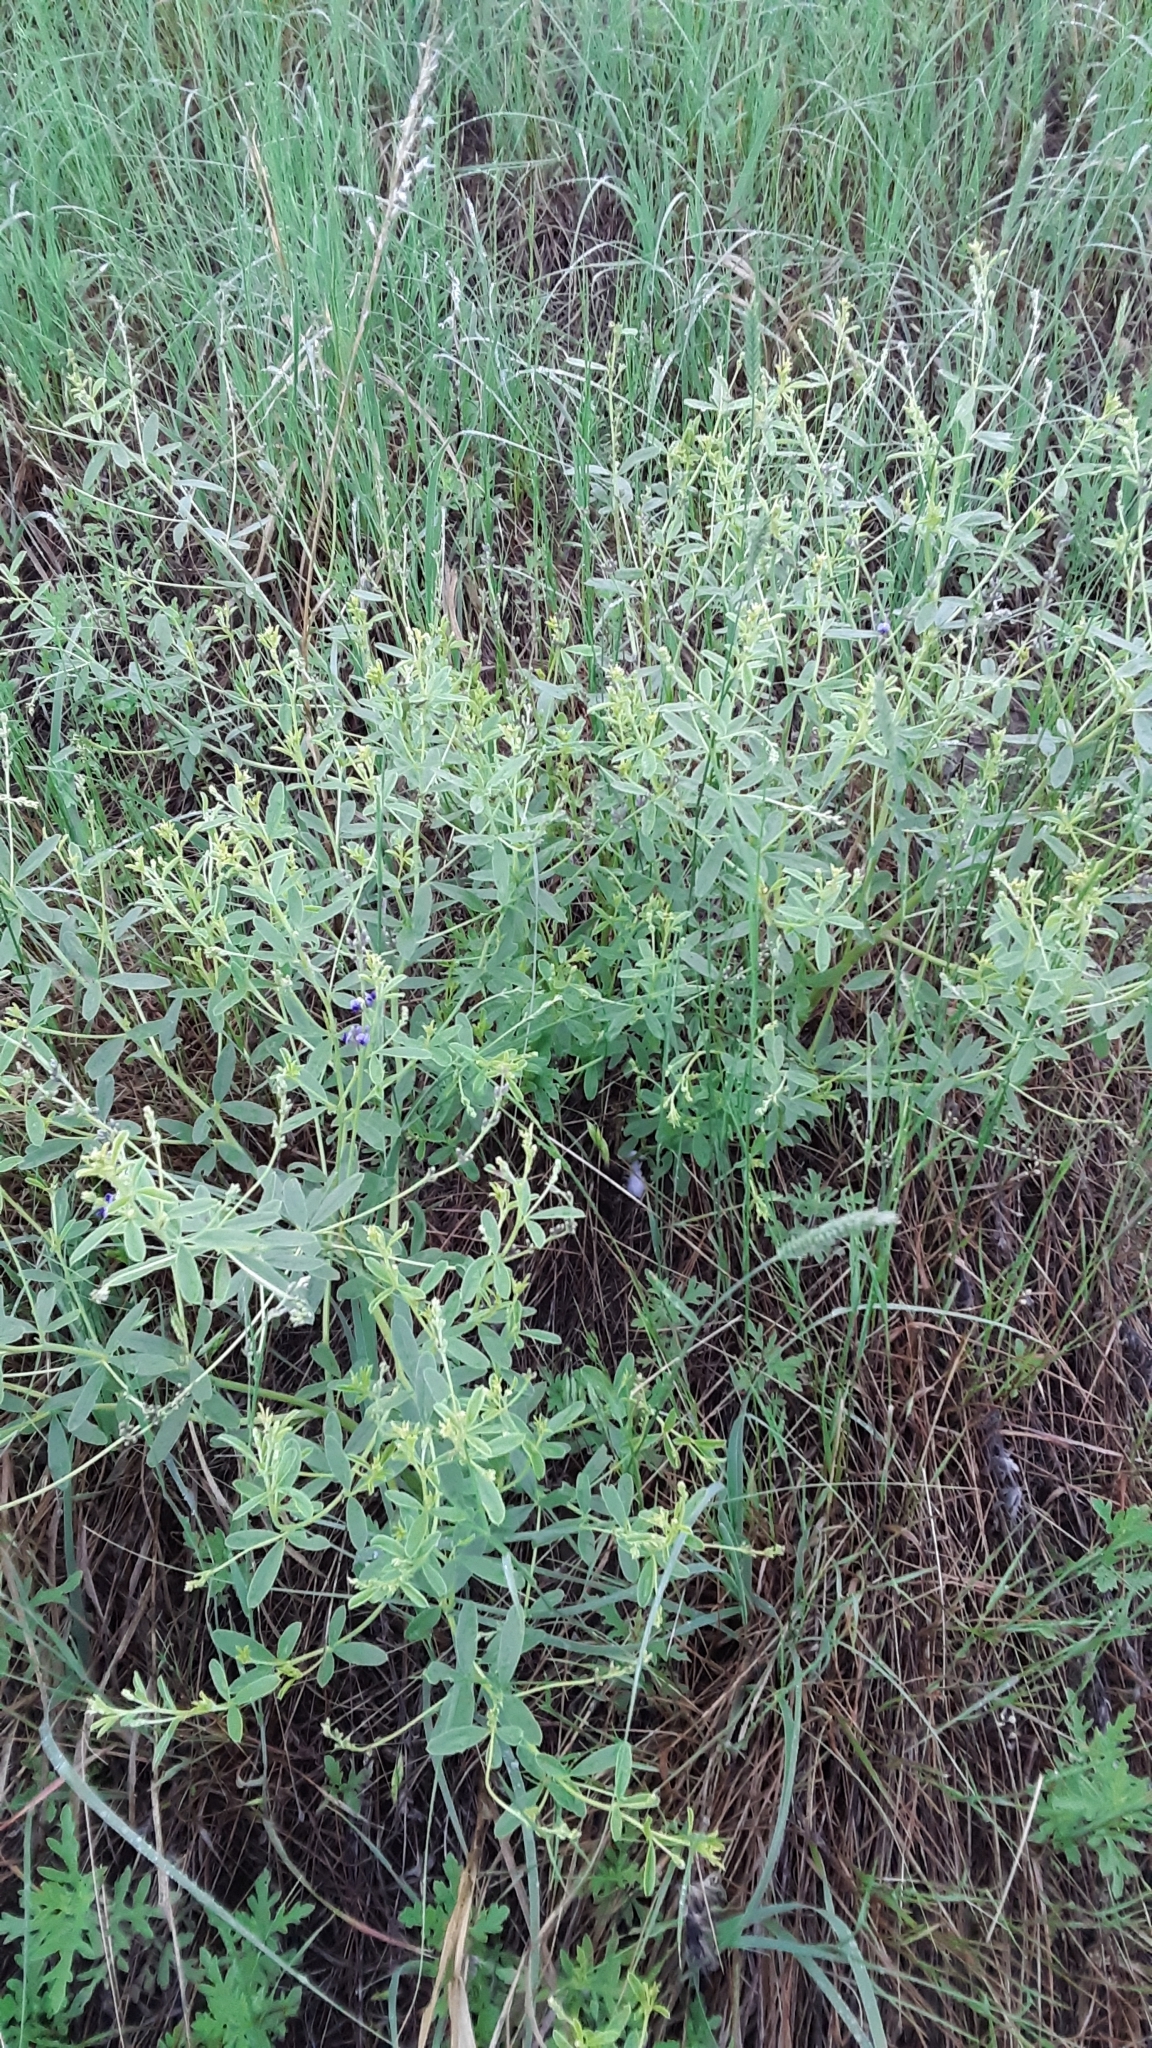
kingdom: Plantae
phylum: Tracheophyta
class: Magnoliopsida
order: Fabales
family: Fabaceae
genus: Pediomelum
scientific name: Pediomelum tenuiflorum
